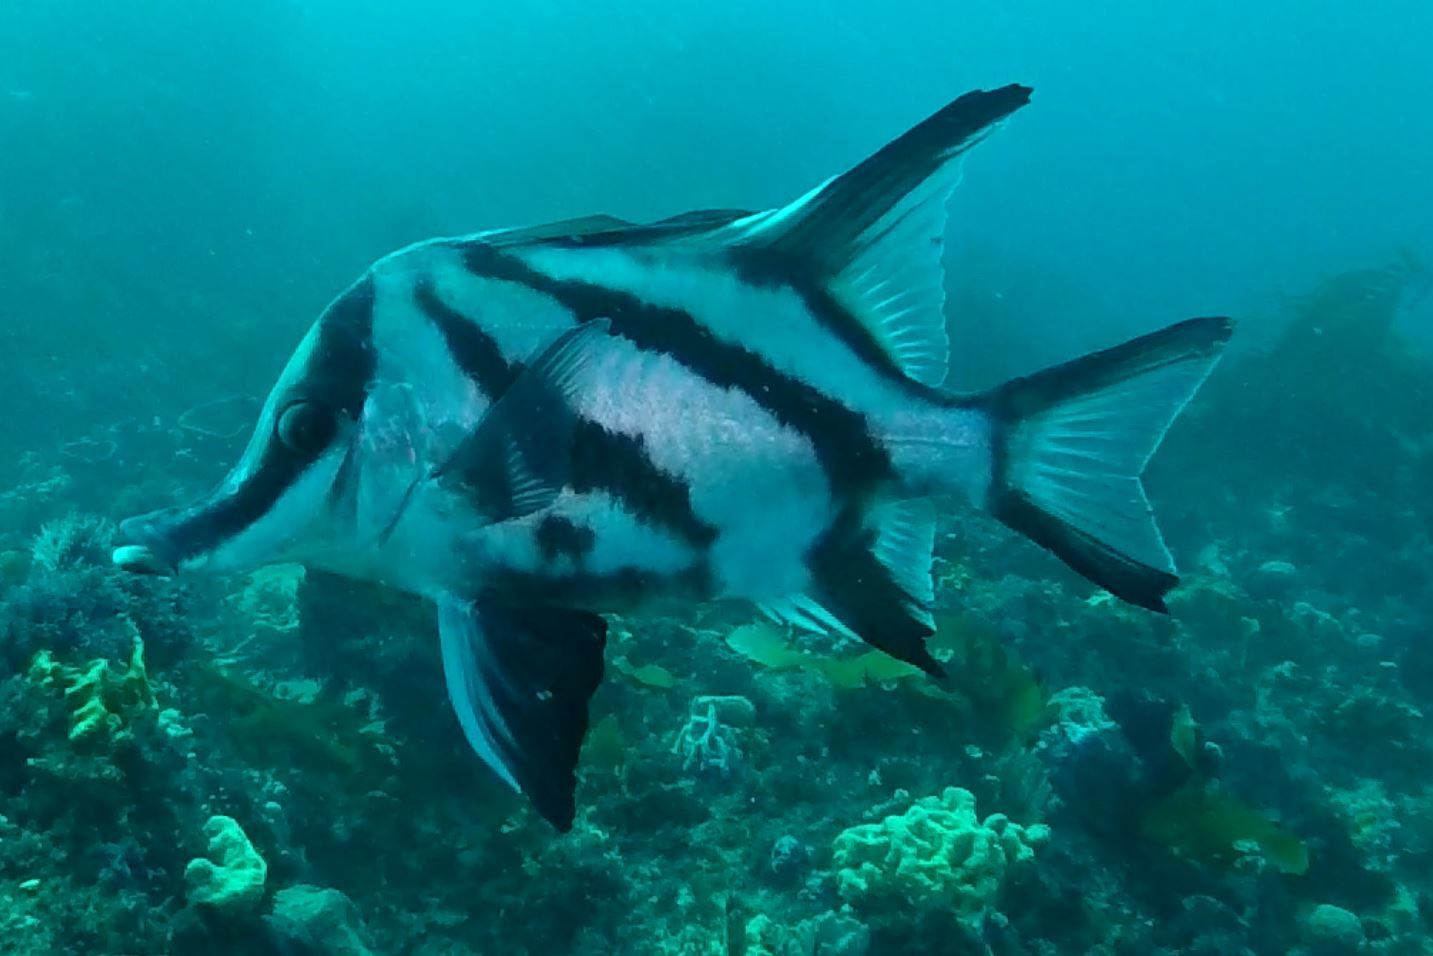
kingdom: Animalia
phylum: Chordata
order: Perciformes
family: Pentacerotidae
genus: Pentaceropsis
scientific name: Pentaceropsis recurvirostris
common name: Longsnout boarfish
